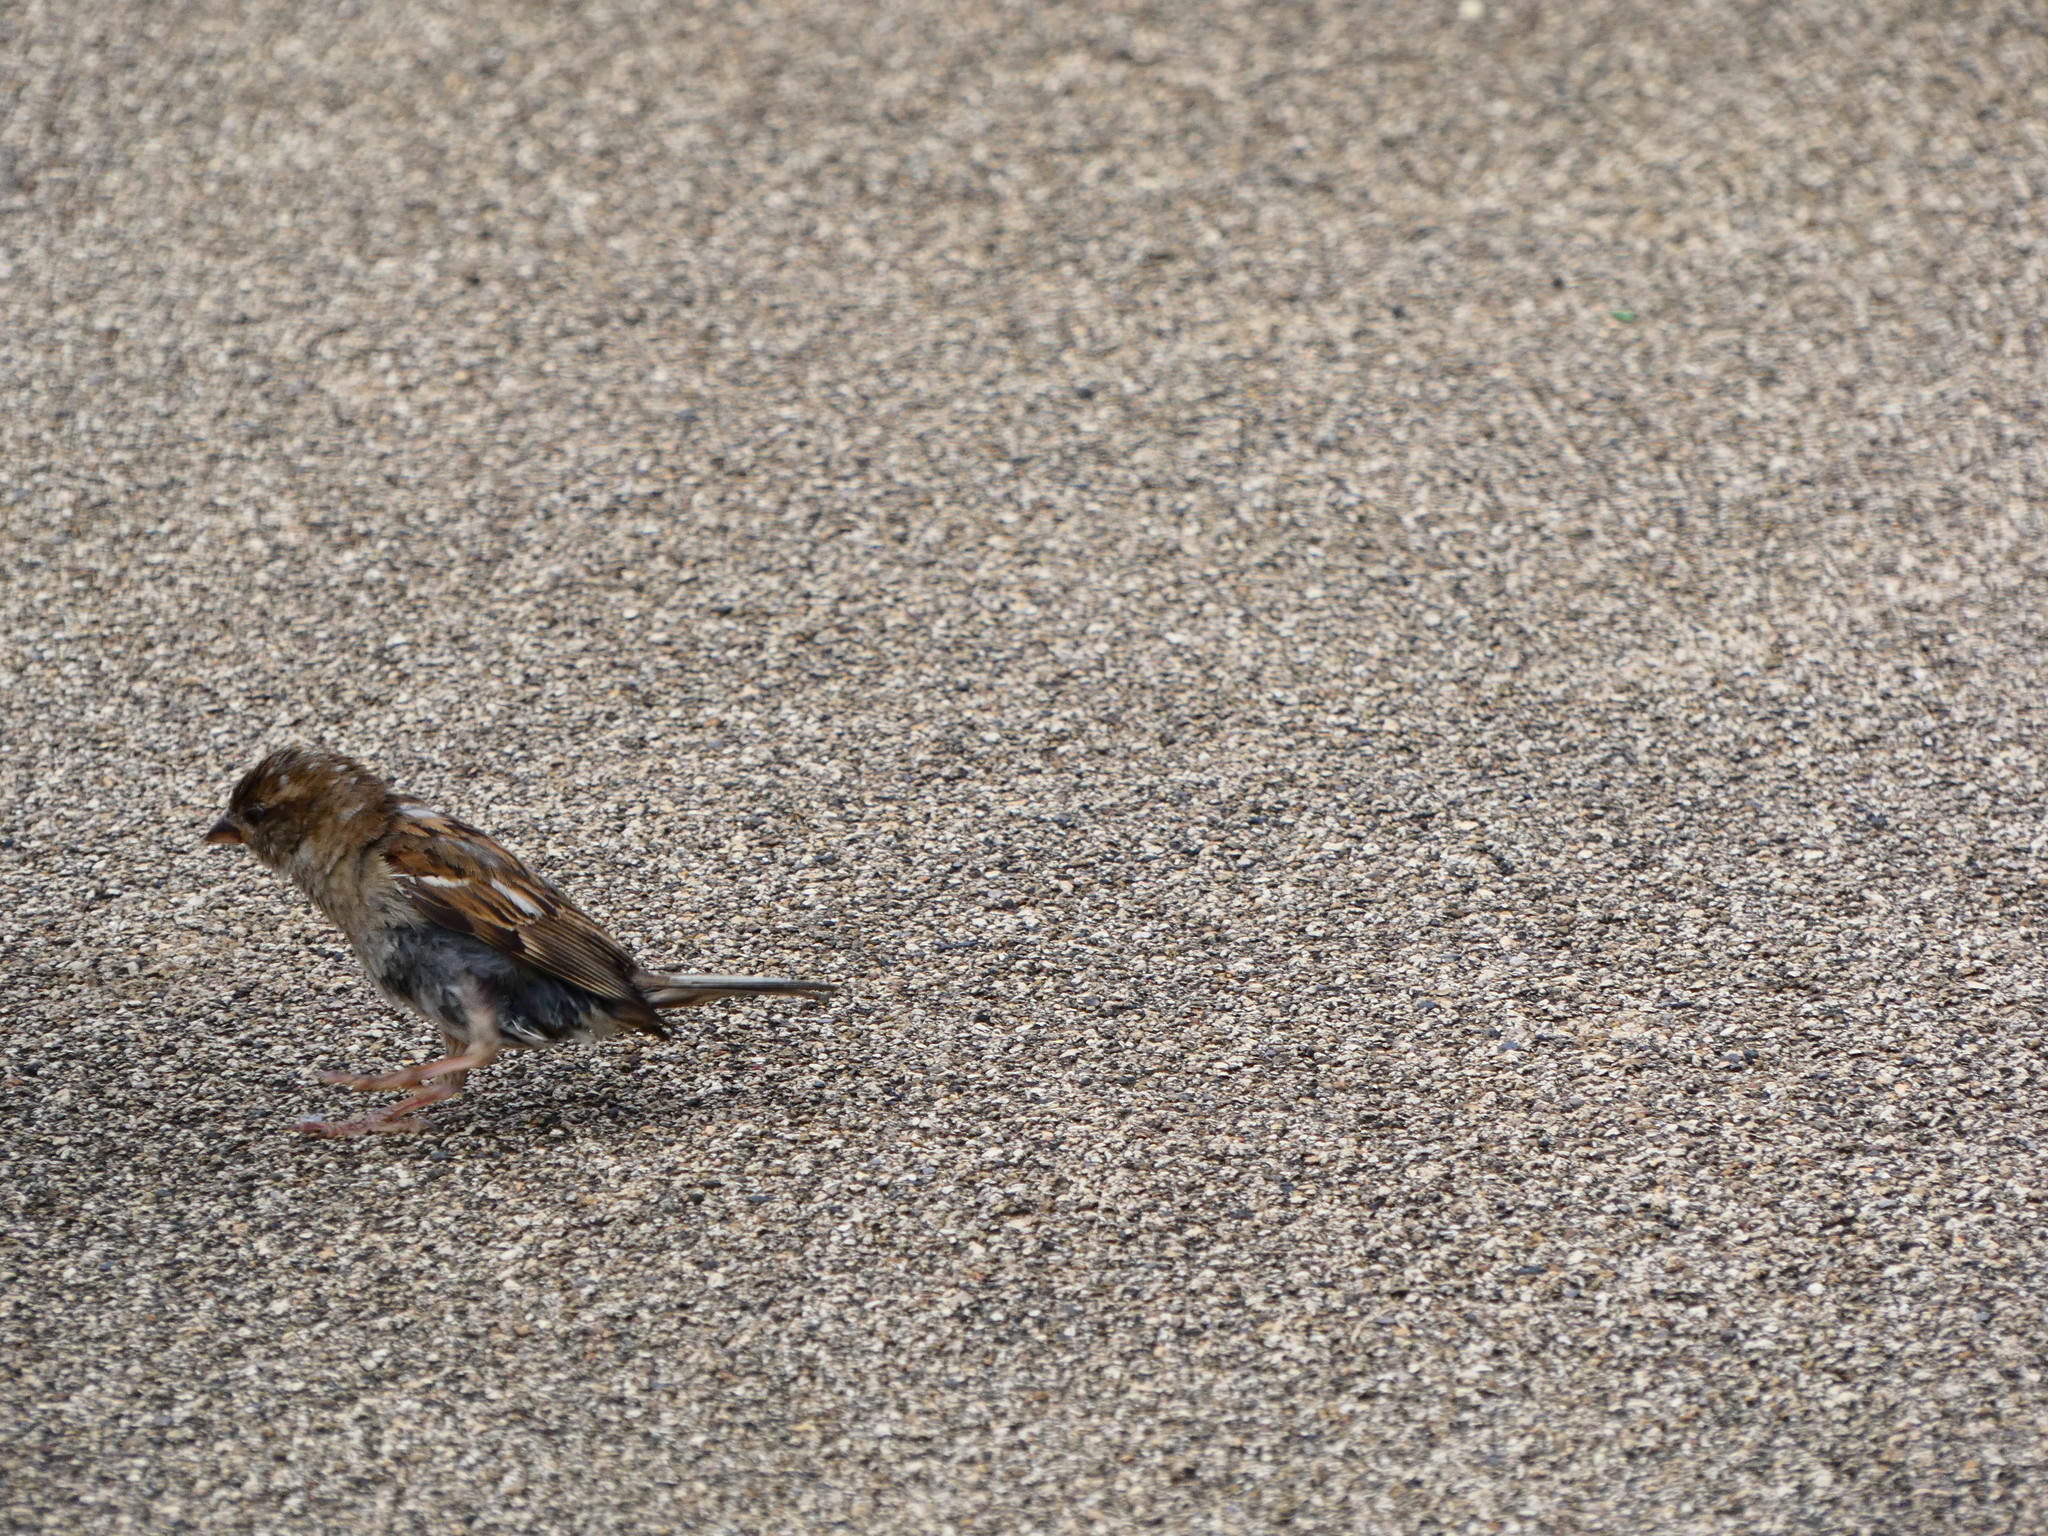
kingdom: Animalia
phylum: Chordata
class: Aves
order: Passeriformes
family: Passeridae
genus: Passer
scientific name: Passer domesticus
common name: House sparrow
